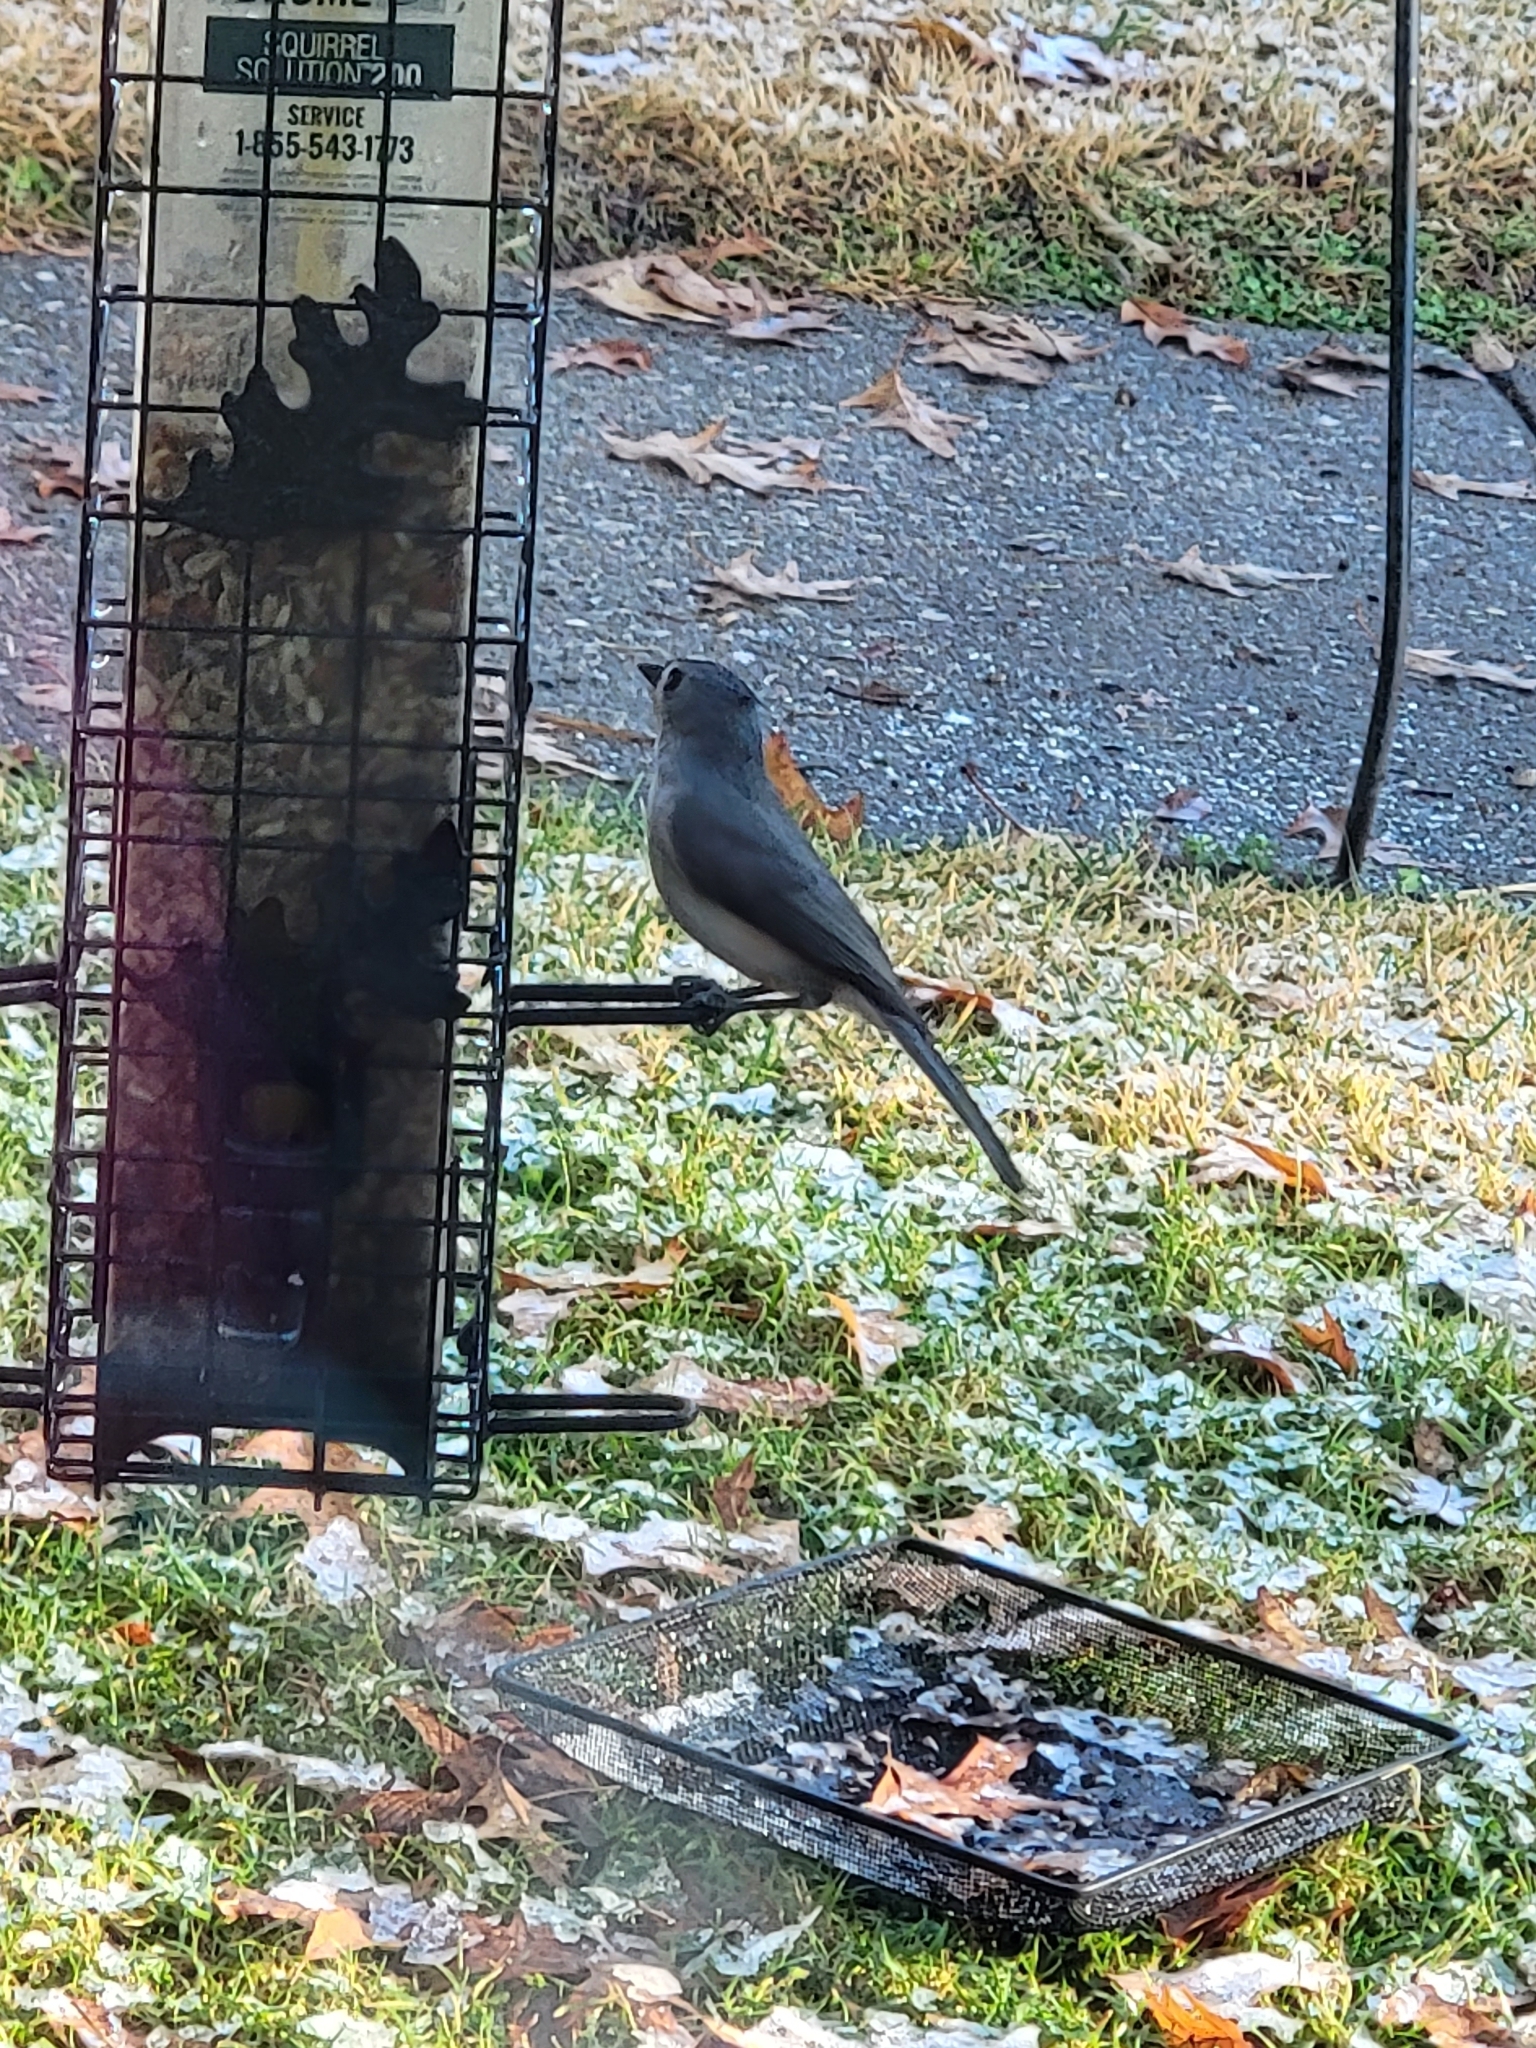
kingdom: Animalia
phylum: Chordata
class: Aves
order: Passeriformes
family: Paridae
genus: Baeolophus
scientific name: Baeolophus bicolor
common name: Tufted titmouse
